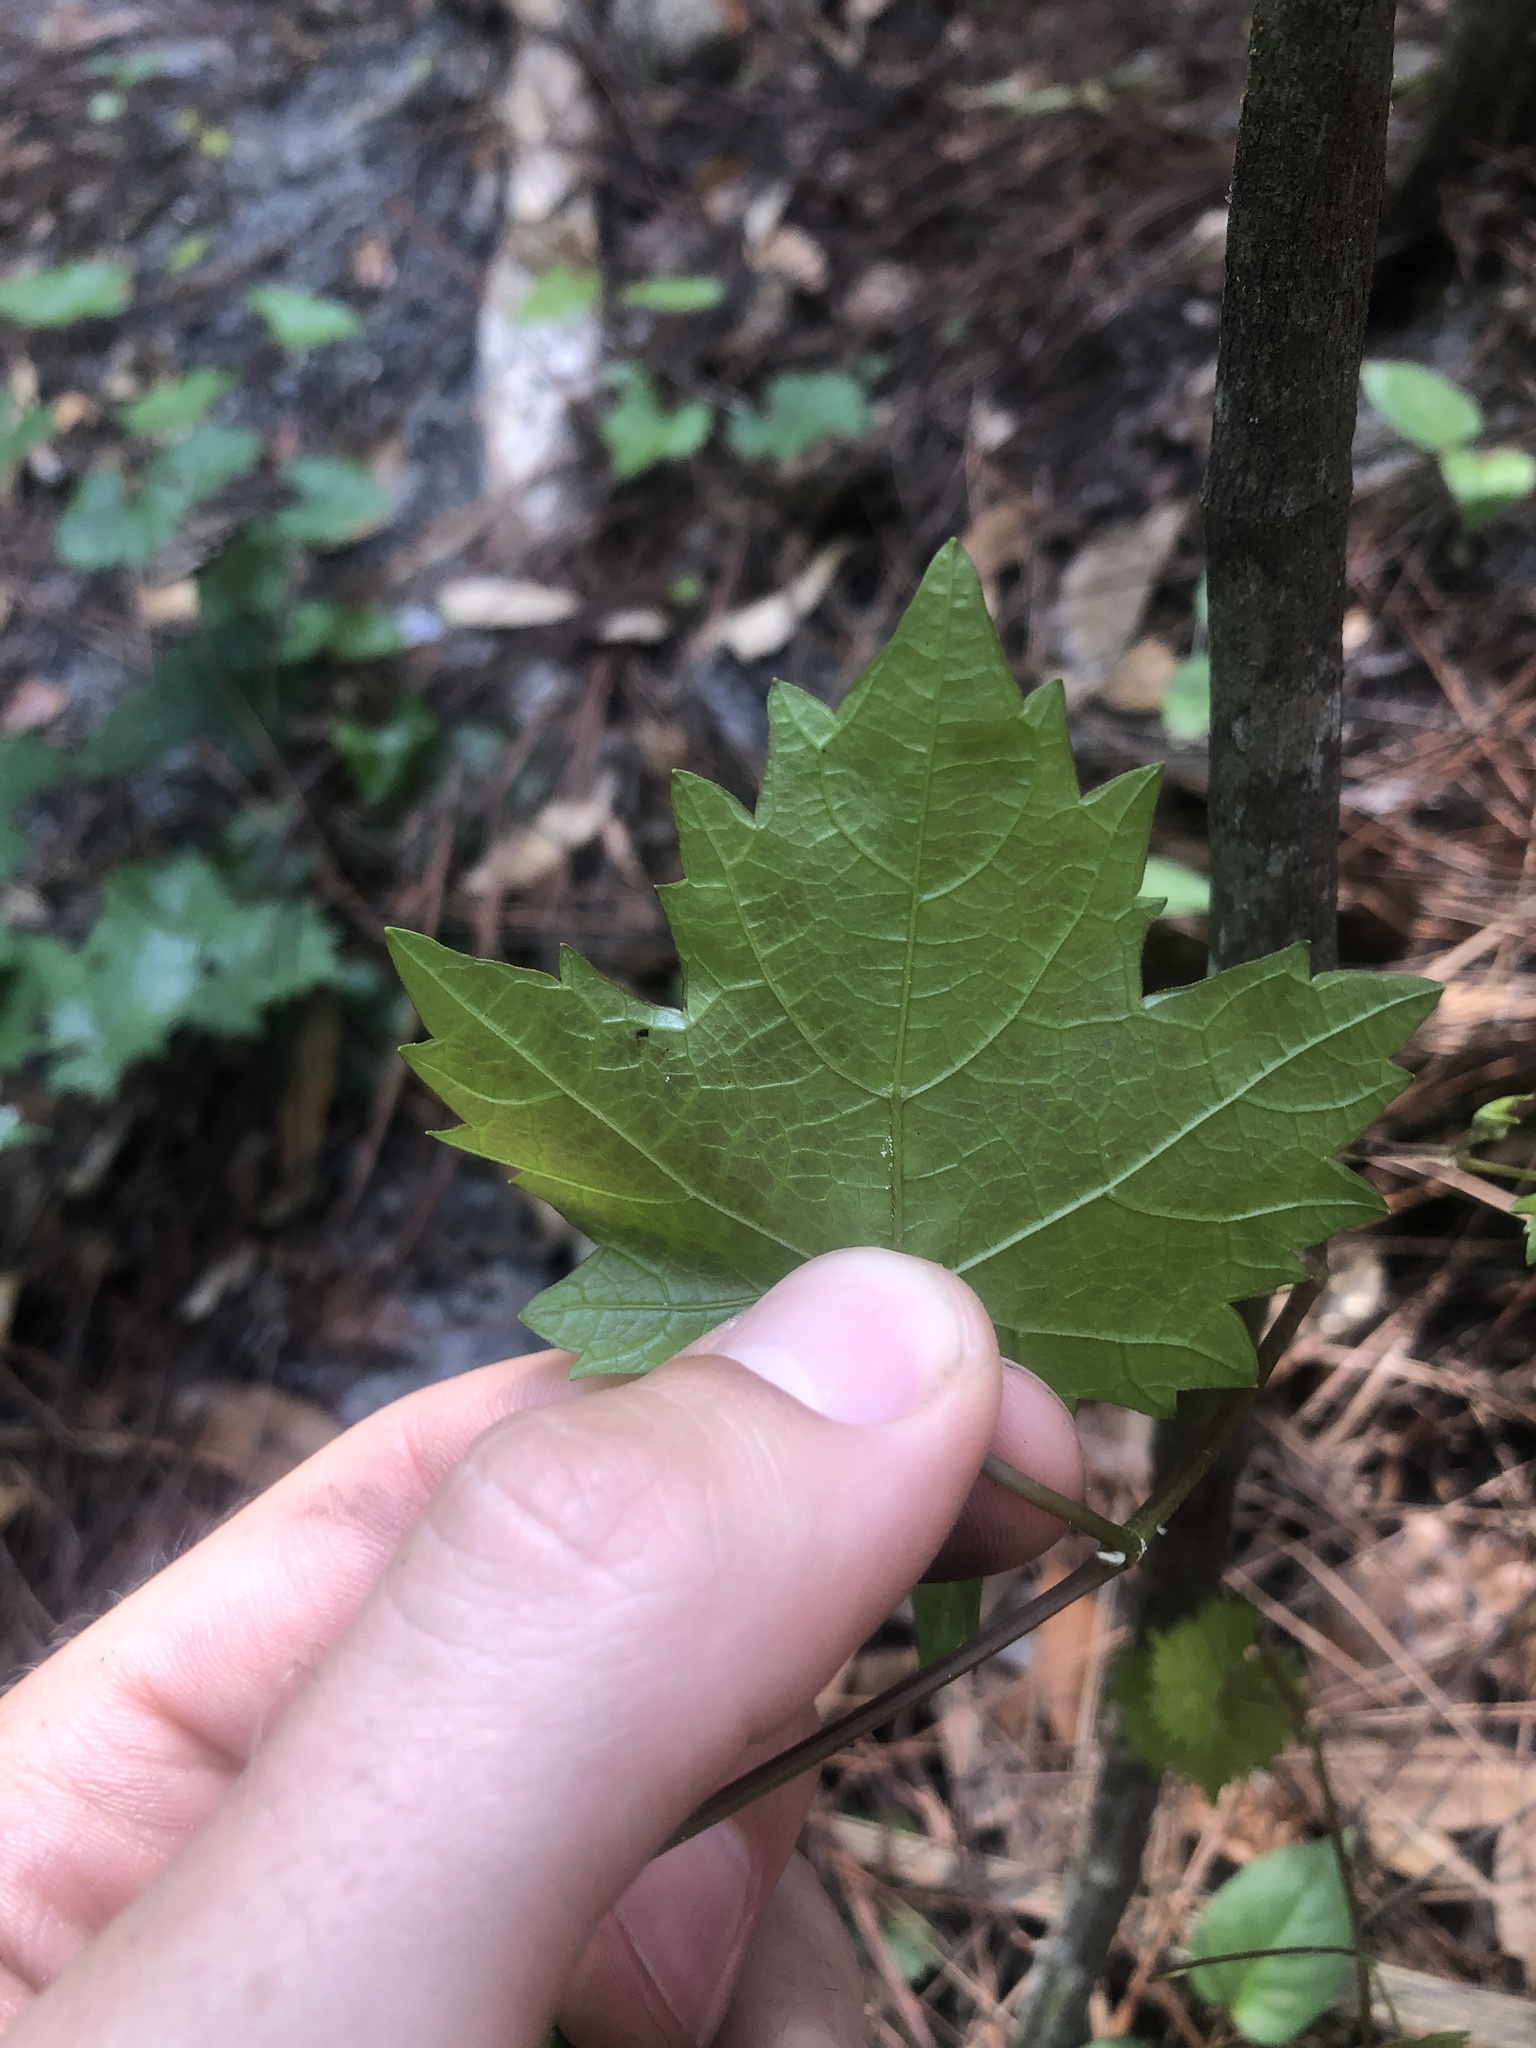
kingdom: Plantae
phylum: Tracheophyta
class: Magnoliopsida
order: Vitales
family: Vitaceae
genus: Vitis
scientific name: Vitis rotundifolia
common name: Muscadine grape
